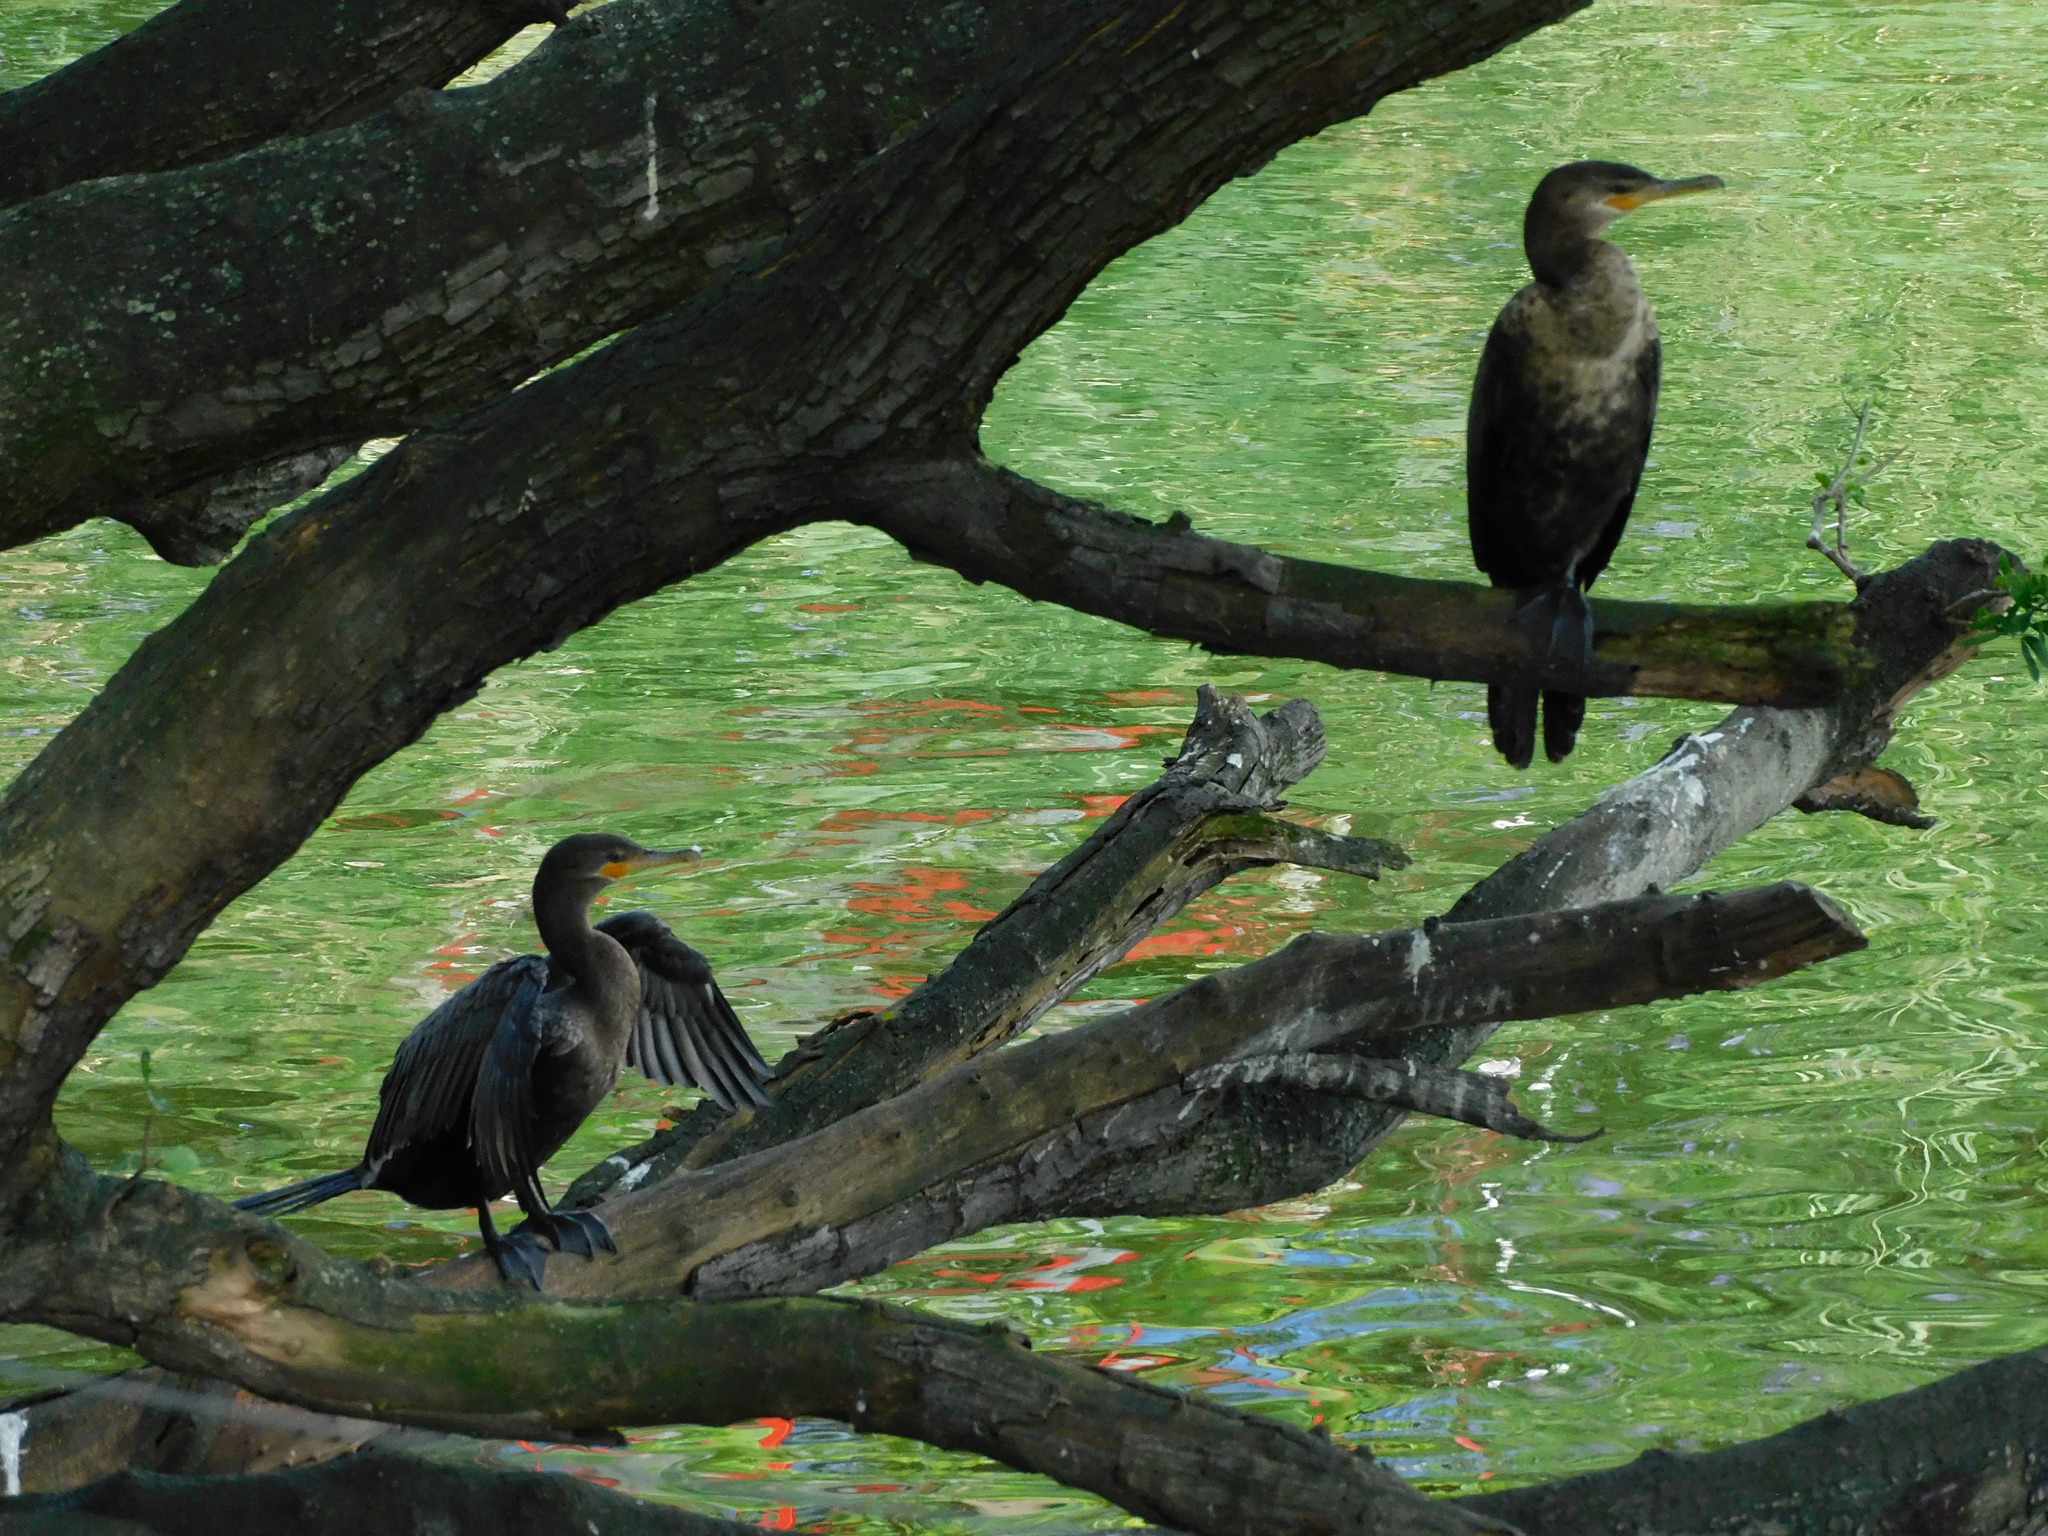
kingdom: Animalia
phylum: Chordata
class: Aves
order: Suliformes
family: Phalacrocoracidae
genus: Phalacrocorax
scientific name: Phalacrocorax brasilianus
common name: Neotropic cormorant
